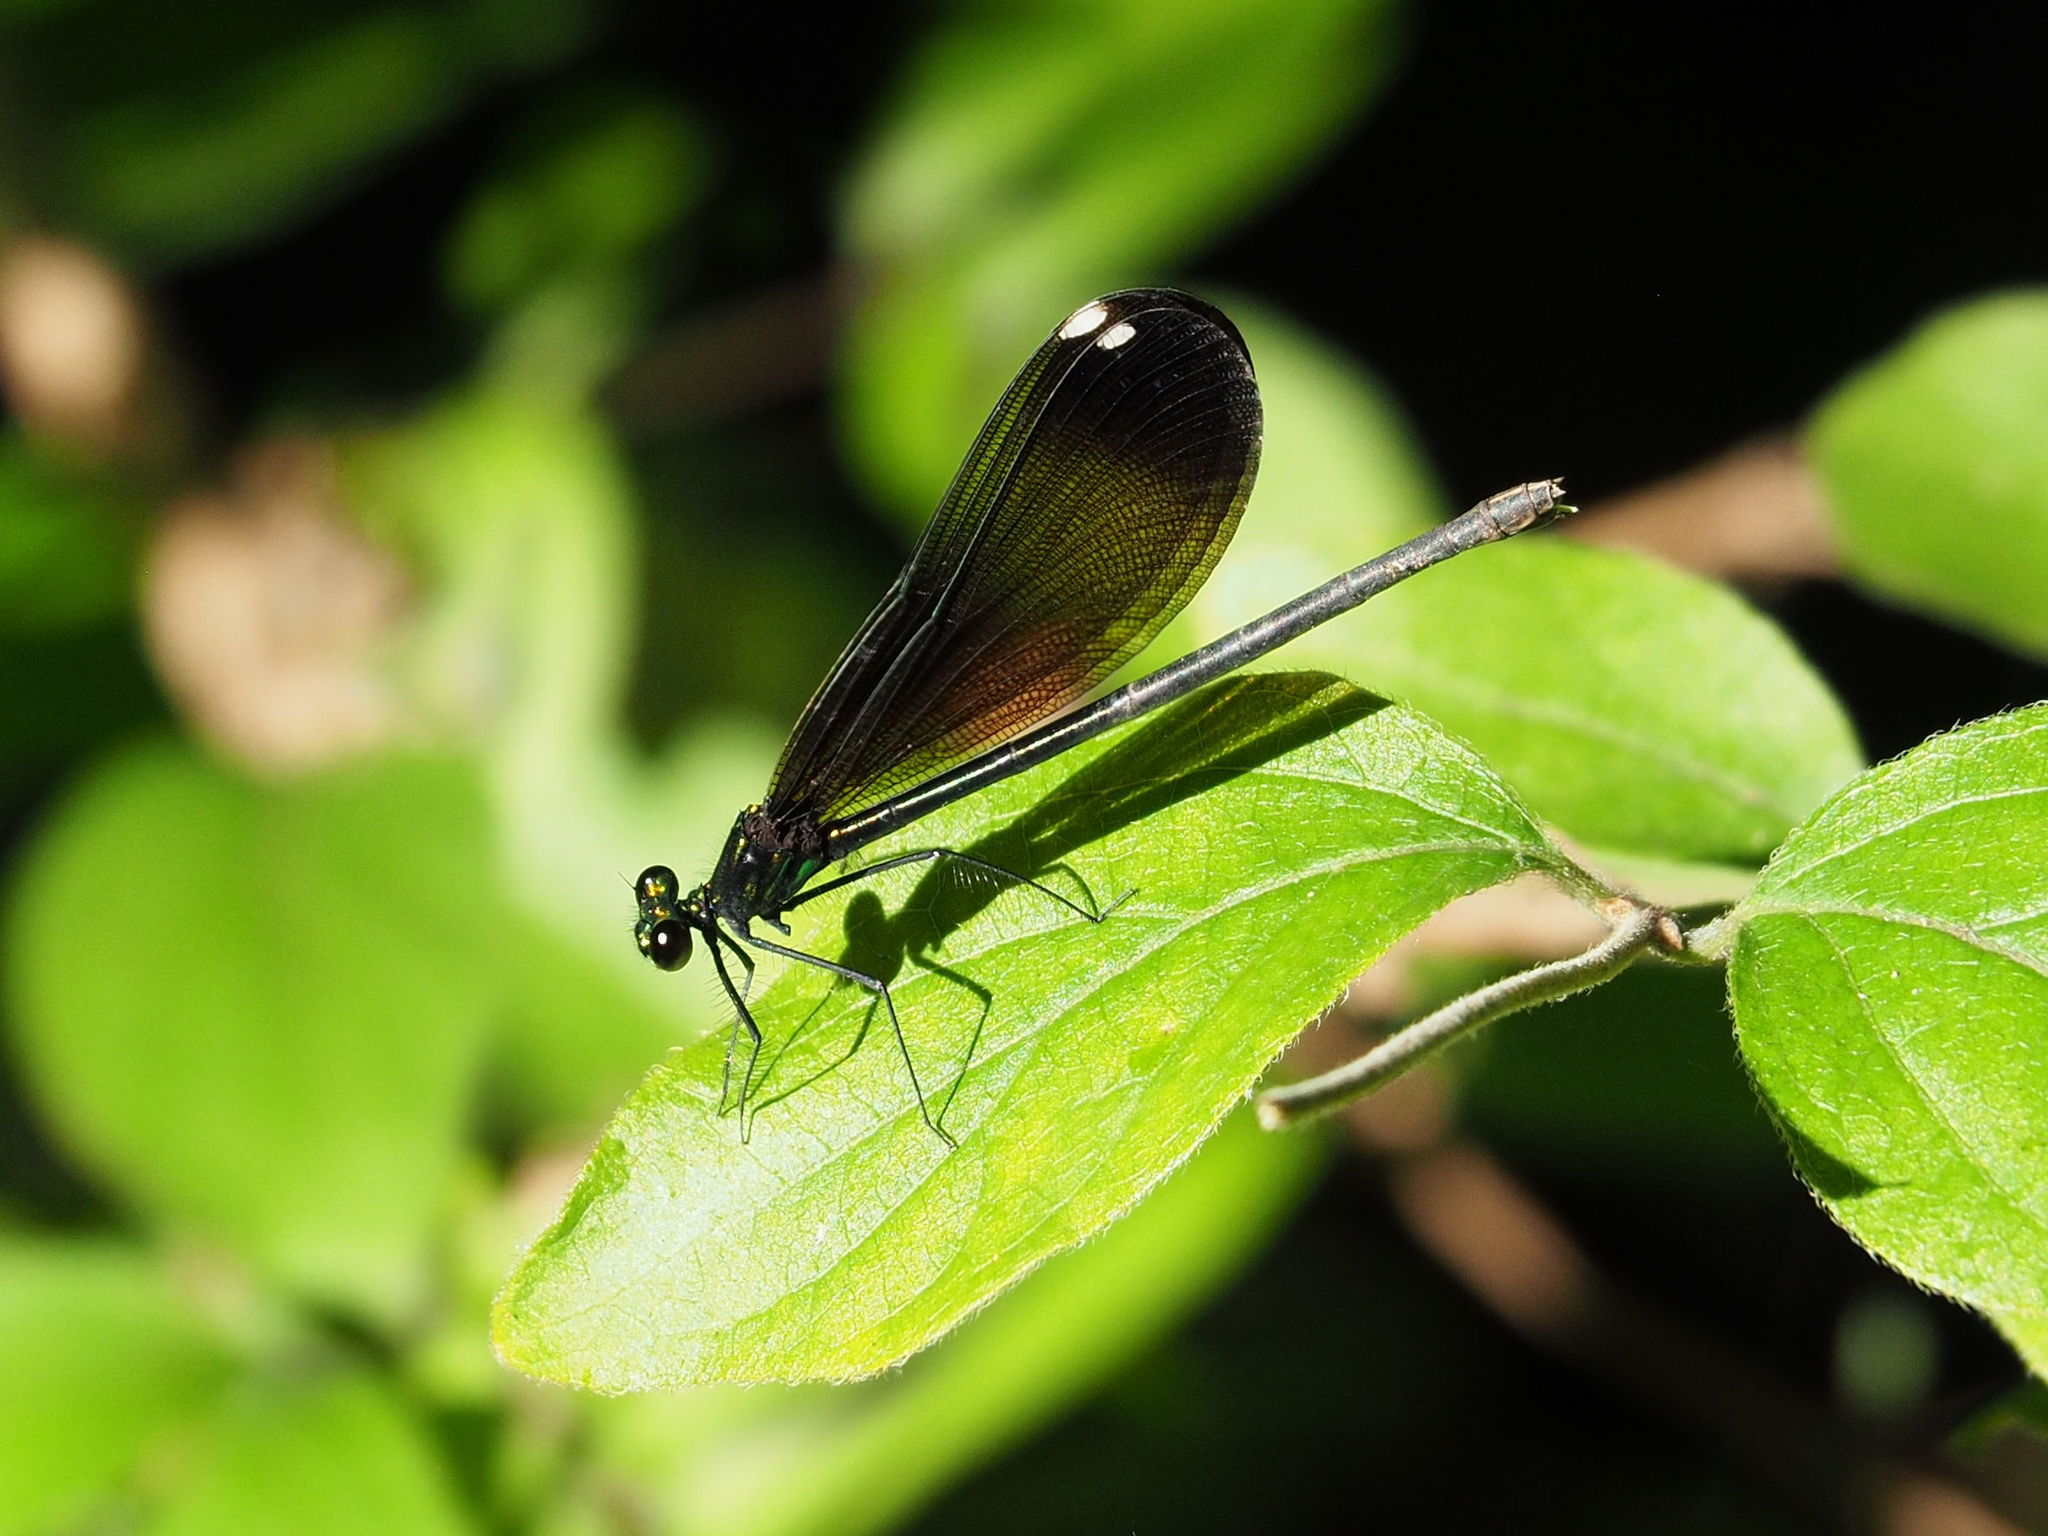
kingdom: Animalia
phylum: Arthropoda
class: Insecta
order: Odonata
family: Calopterygidae
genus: Calopteryx
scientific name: Calopteryx maculata
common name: Ebony jewelwing
